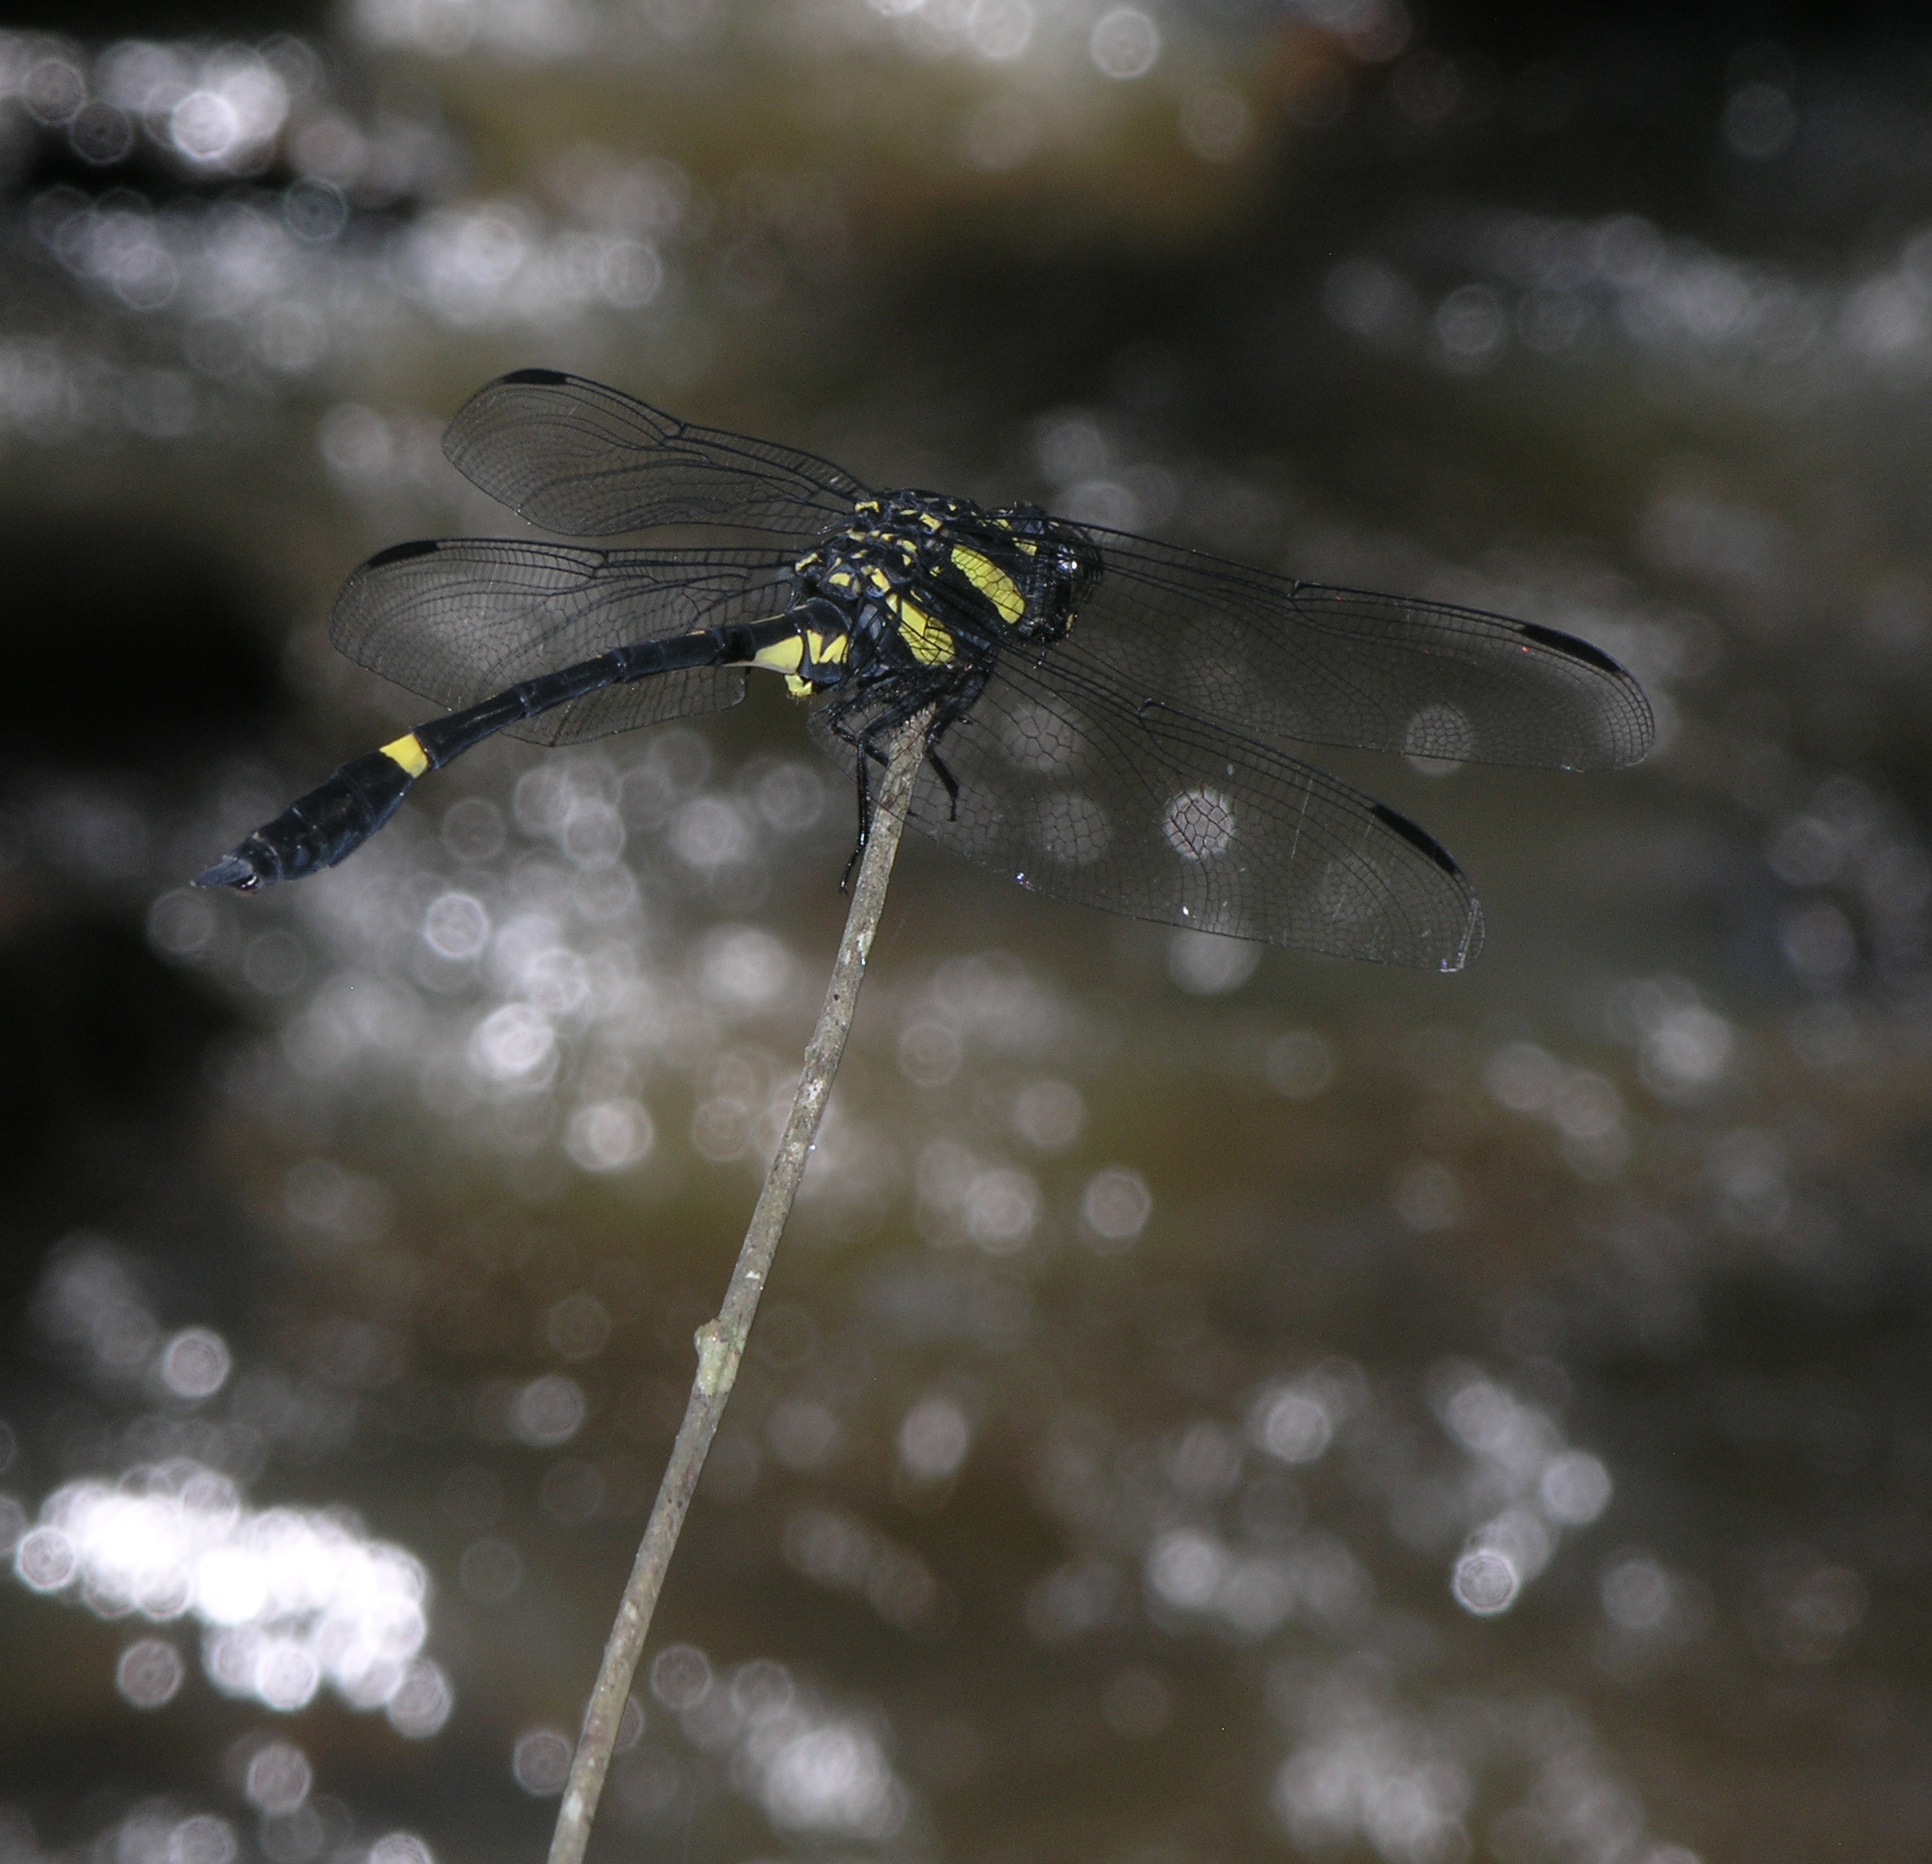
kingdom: Animalia
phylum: Arthropoda
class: Insecta
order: Odonata
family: Gomphidae
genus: Gomphidictinus
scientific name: Gomphidictinus perakensis
